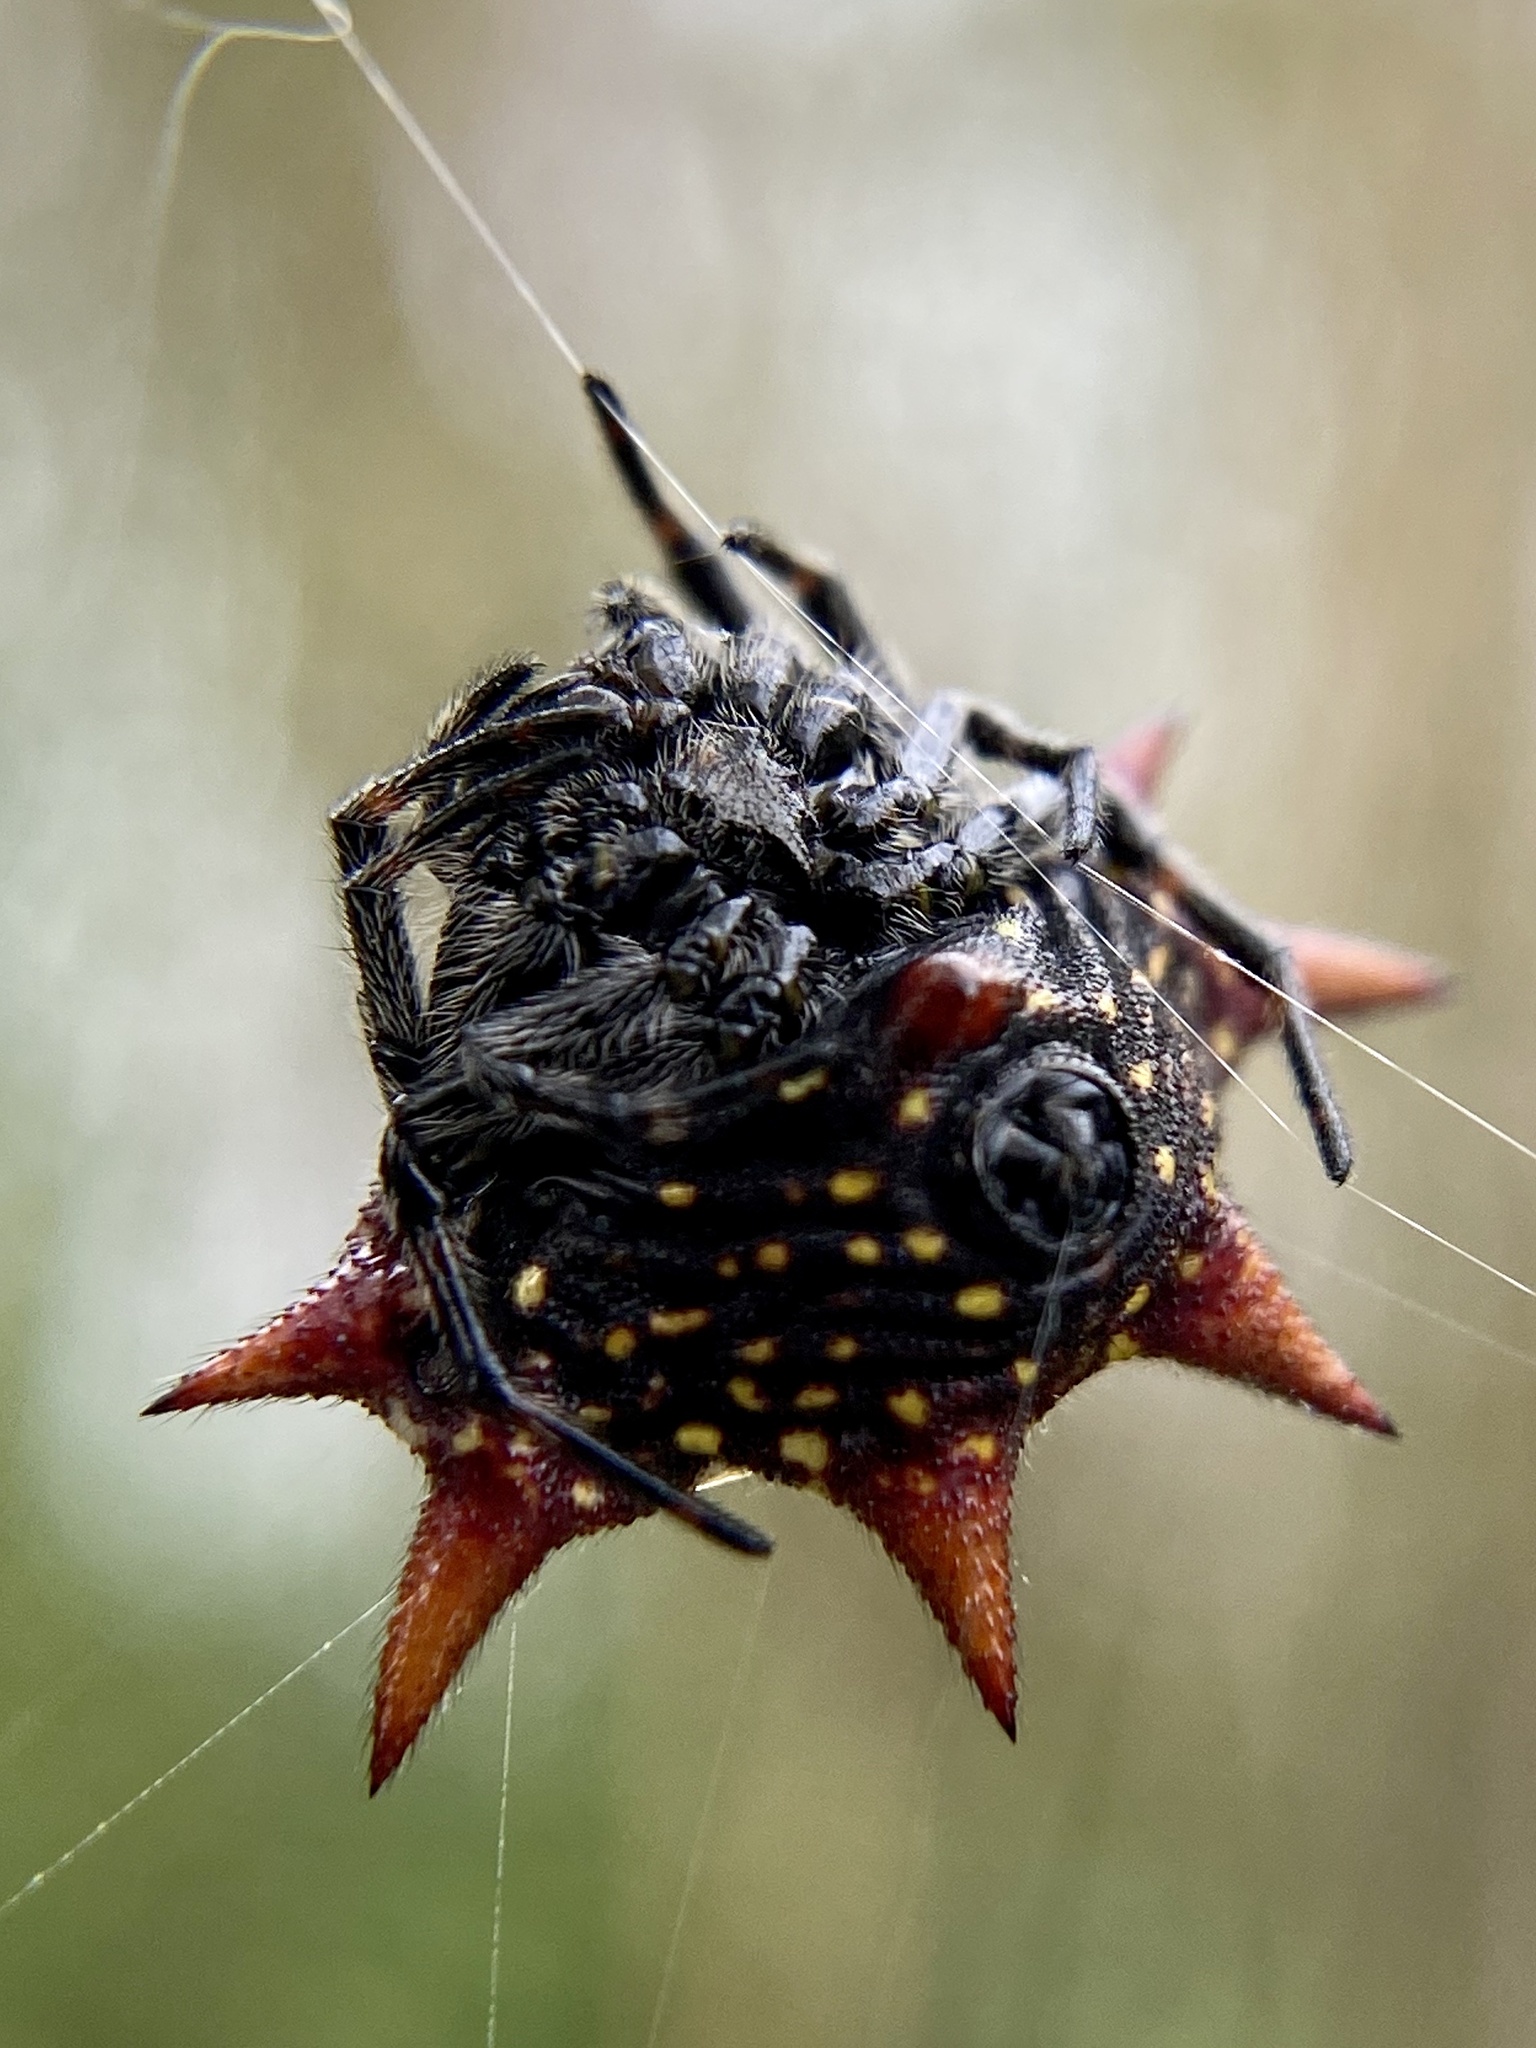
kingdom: Animalia
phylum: Arthropoda
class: Arachnida
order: Araneae
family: Araneidae
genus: Gasteracantha
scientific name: Gasteracantha cancriformis
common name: Orb weavers
